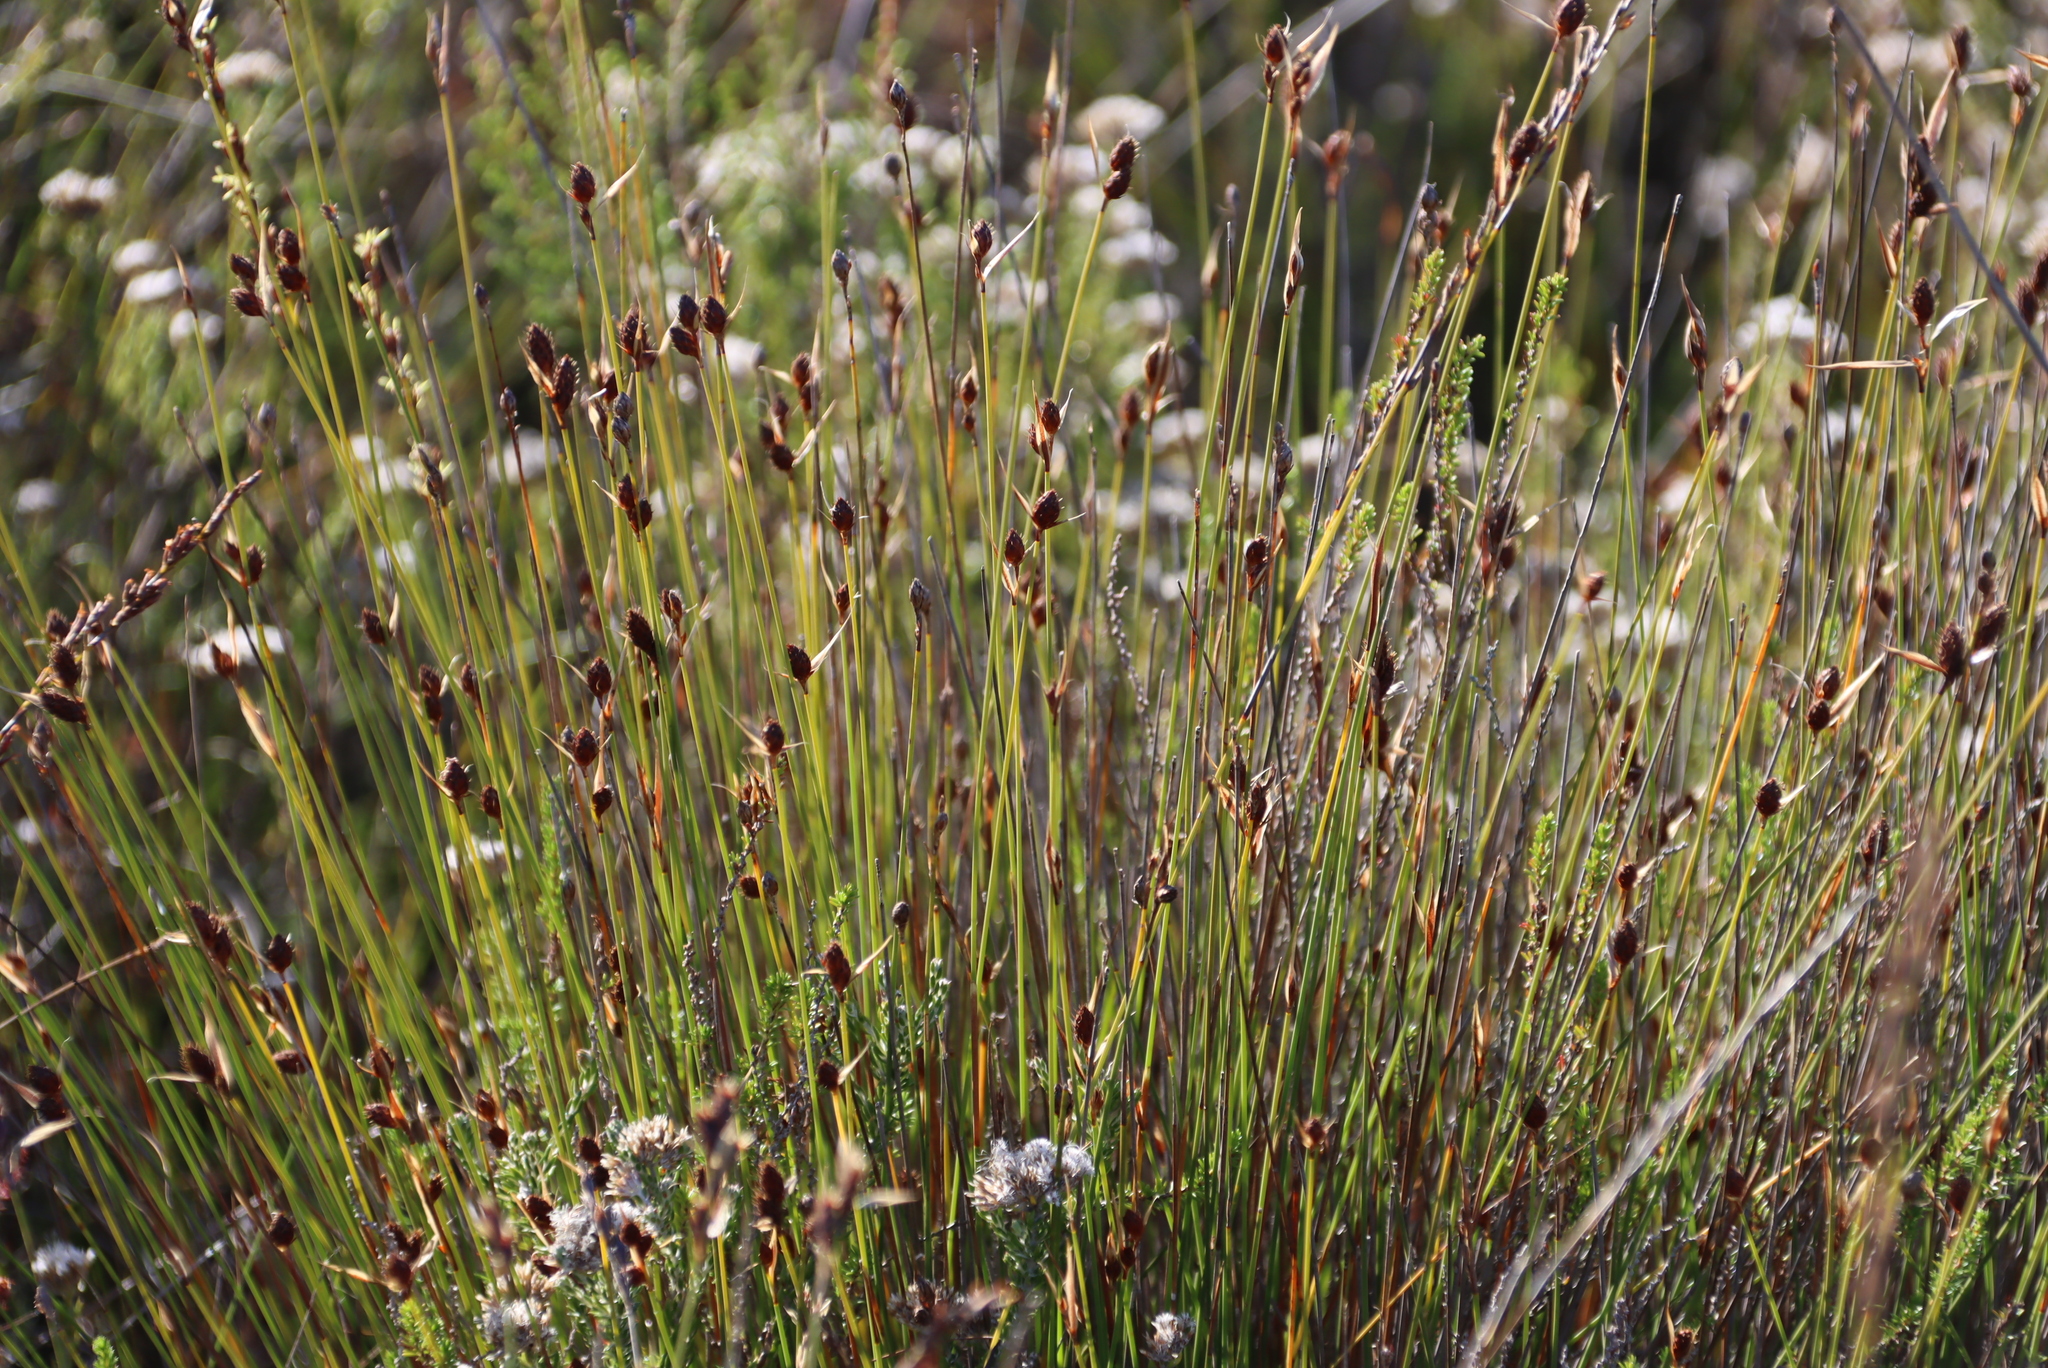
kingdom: Plantae
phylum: Tracheophyta
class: Liliopsida
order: Poales
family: Restionaceae
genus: Hypodiscus
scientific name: Hypodiscus aristatus
